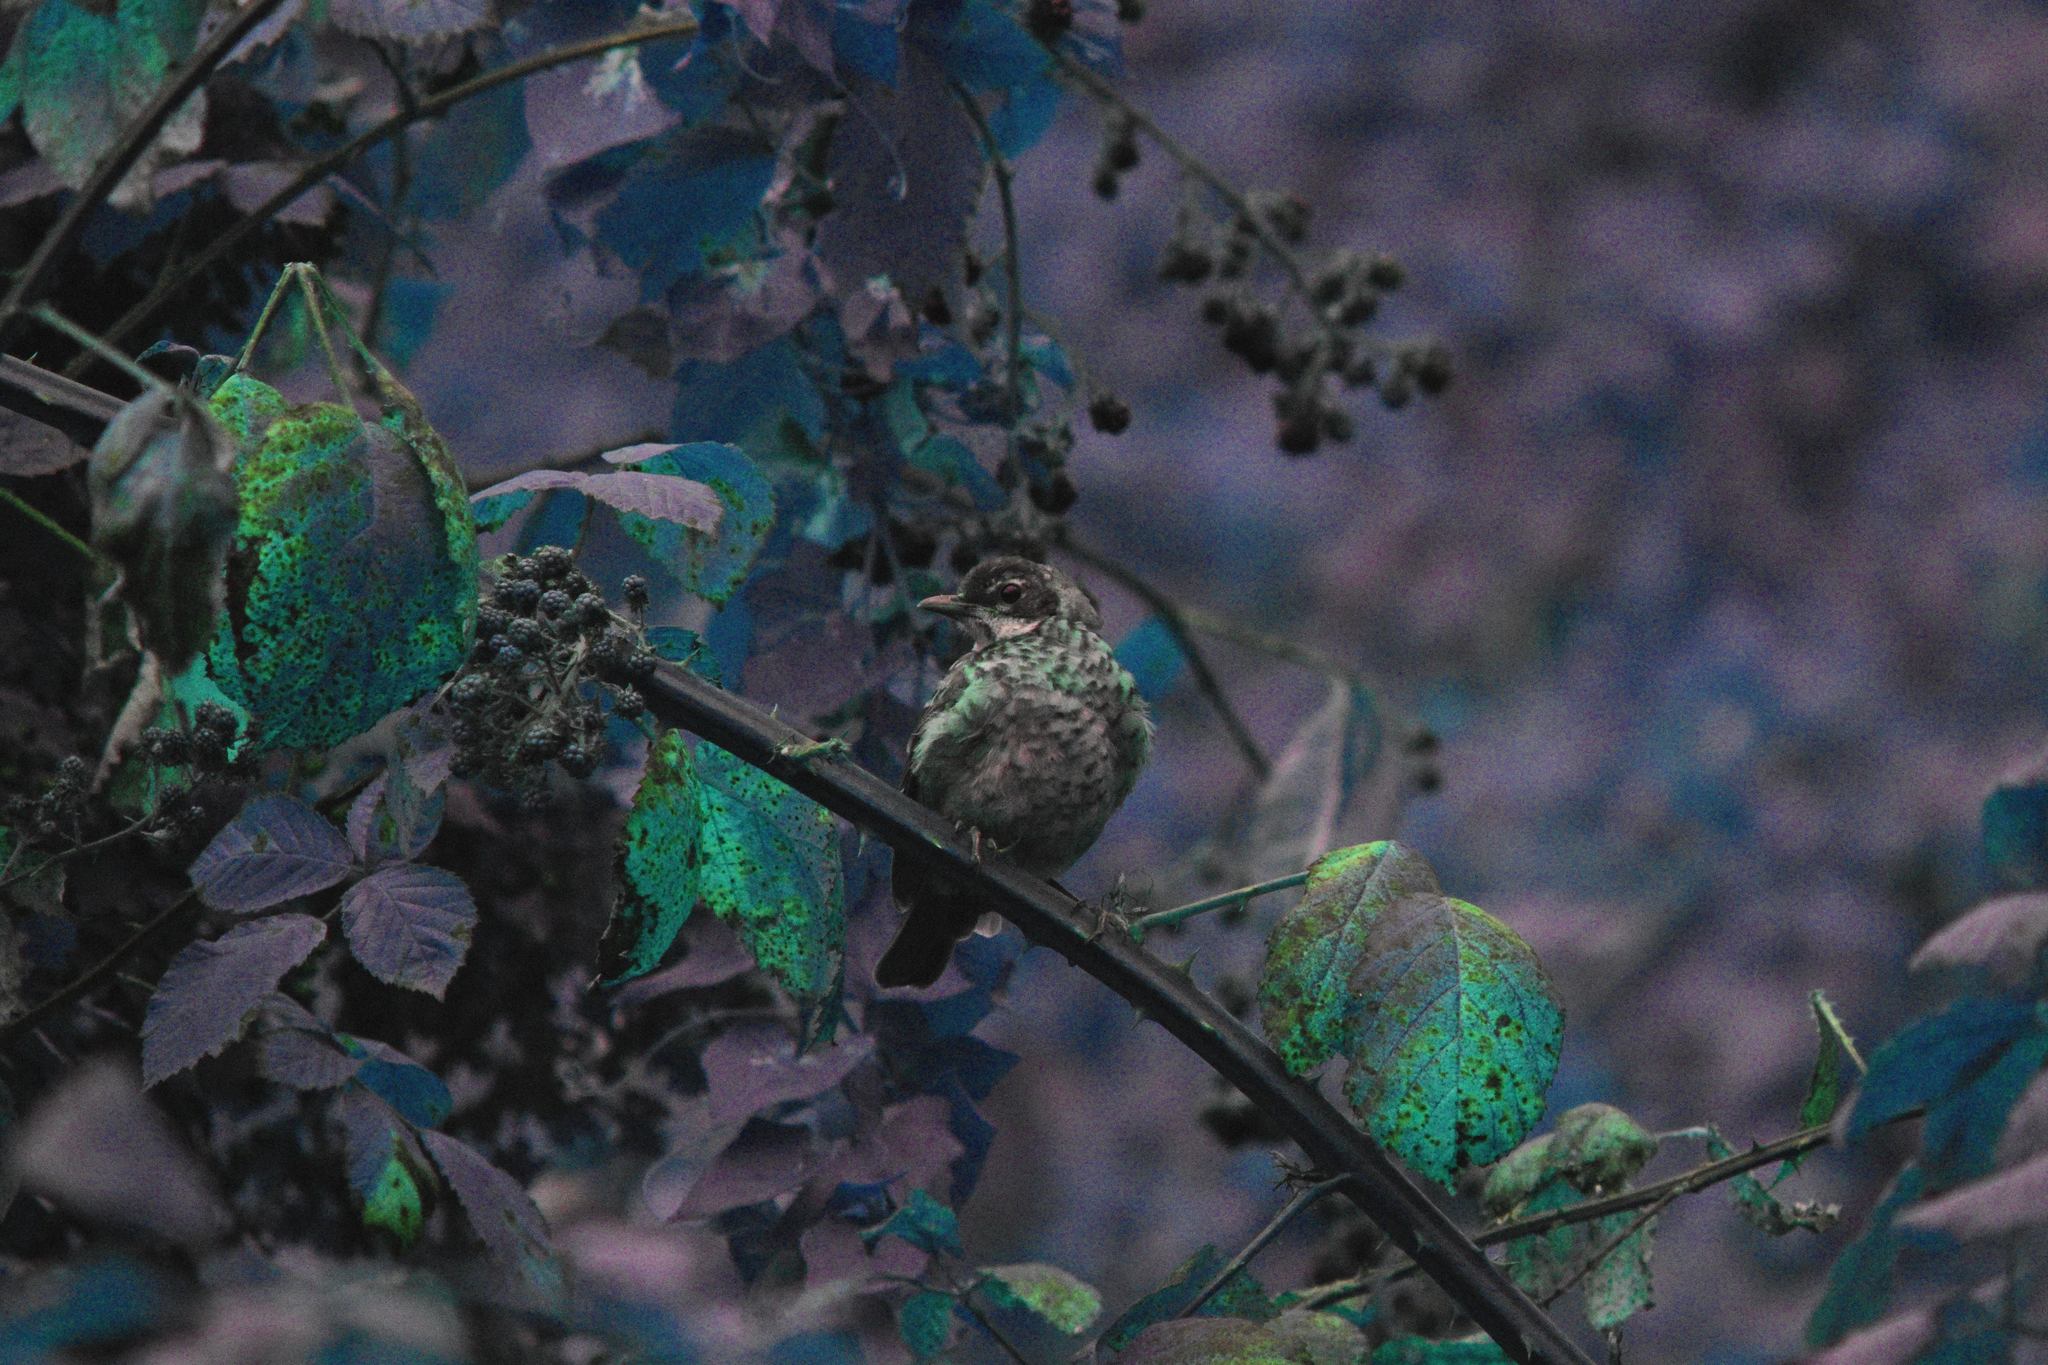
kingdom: Animalia
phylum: Chordata
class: Aves
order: Passeriformes
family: Turdidae
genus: Turdus
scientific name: Turdus migratorius
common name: American robin
